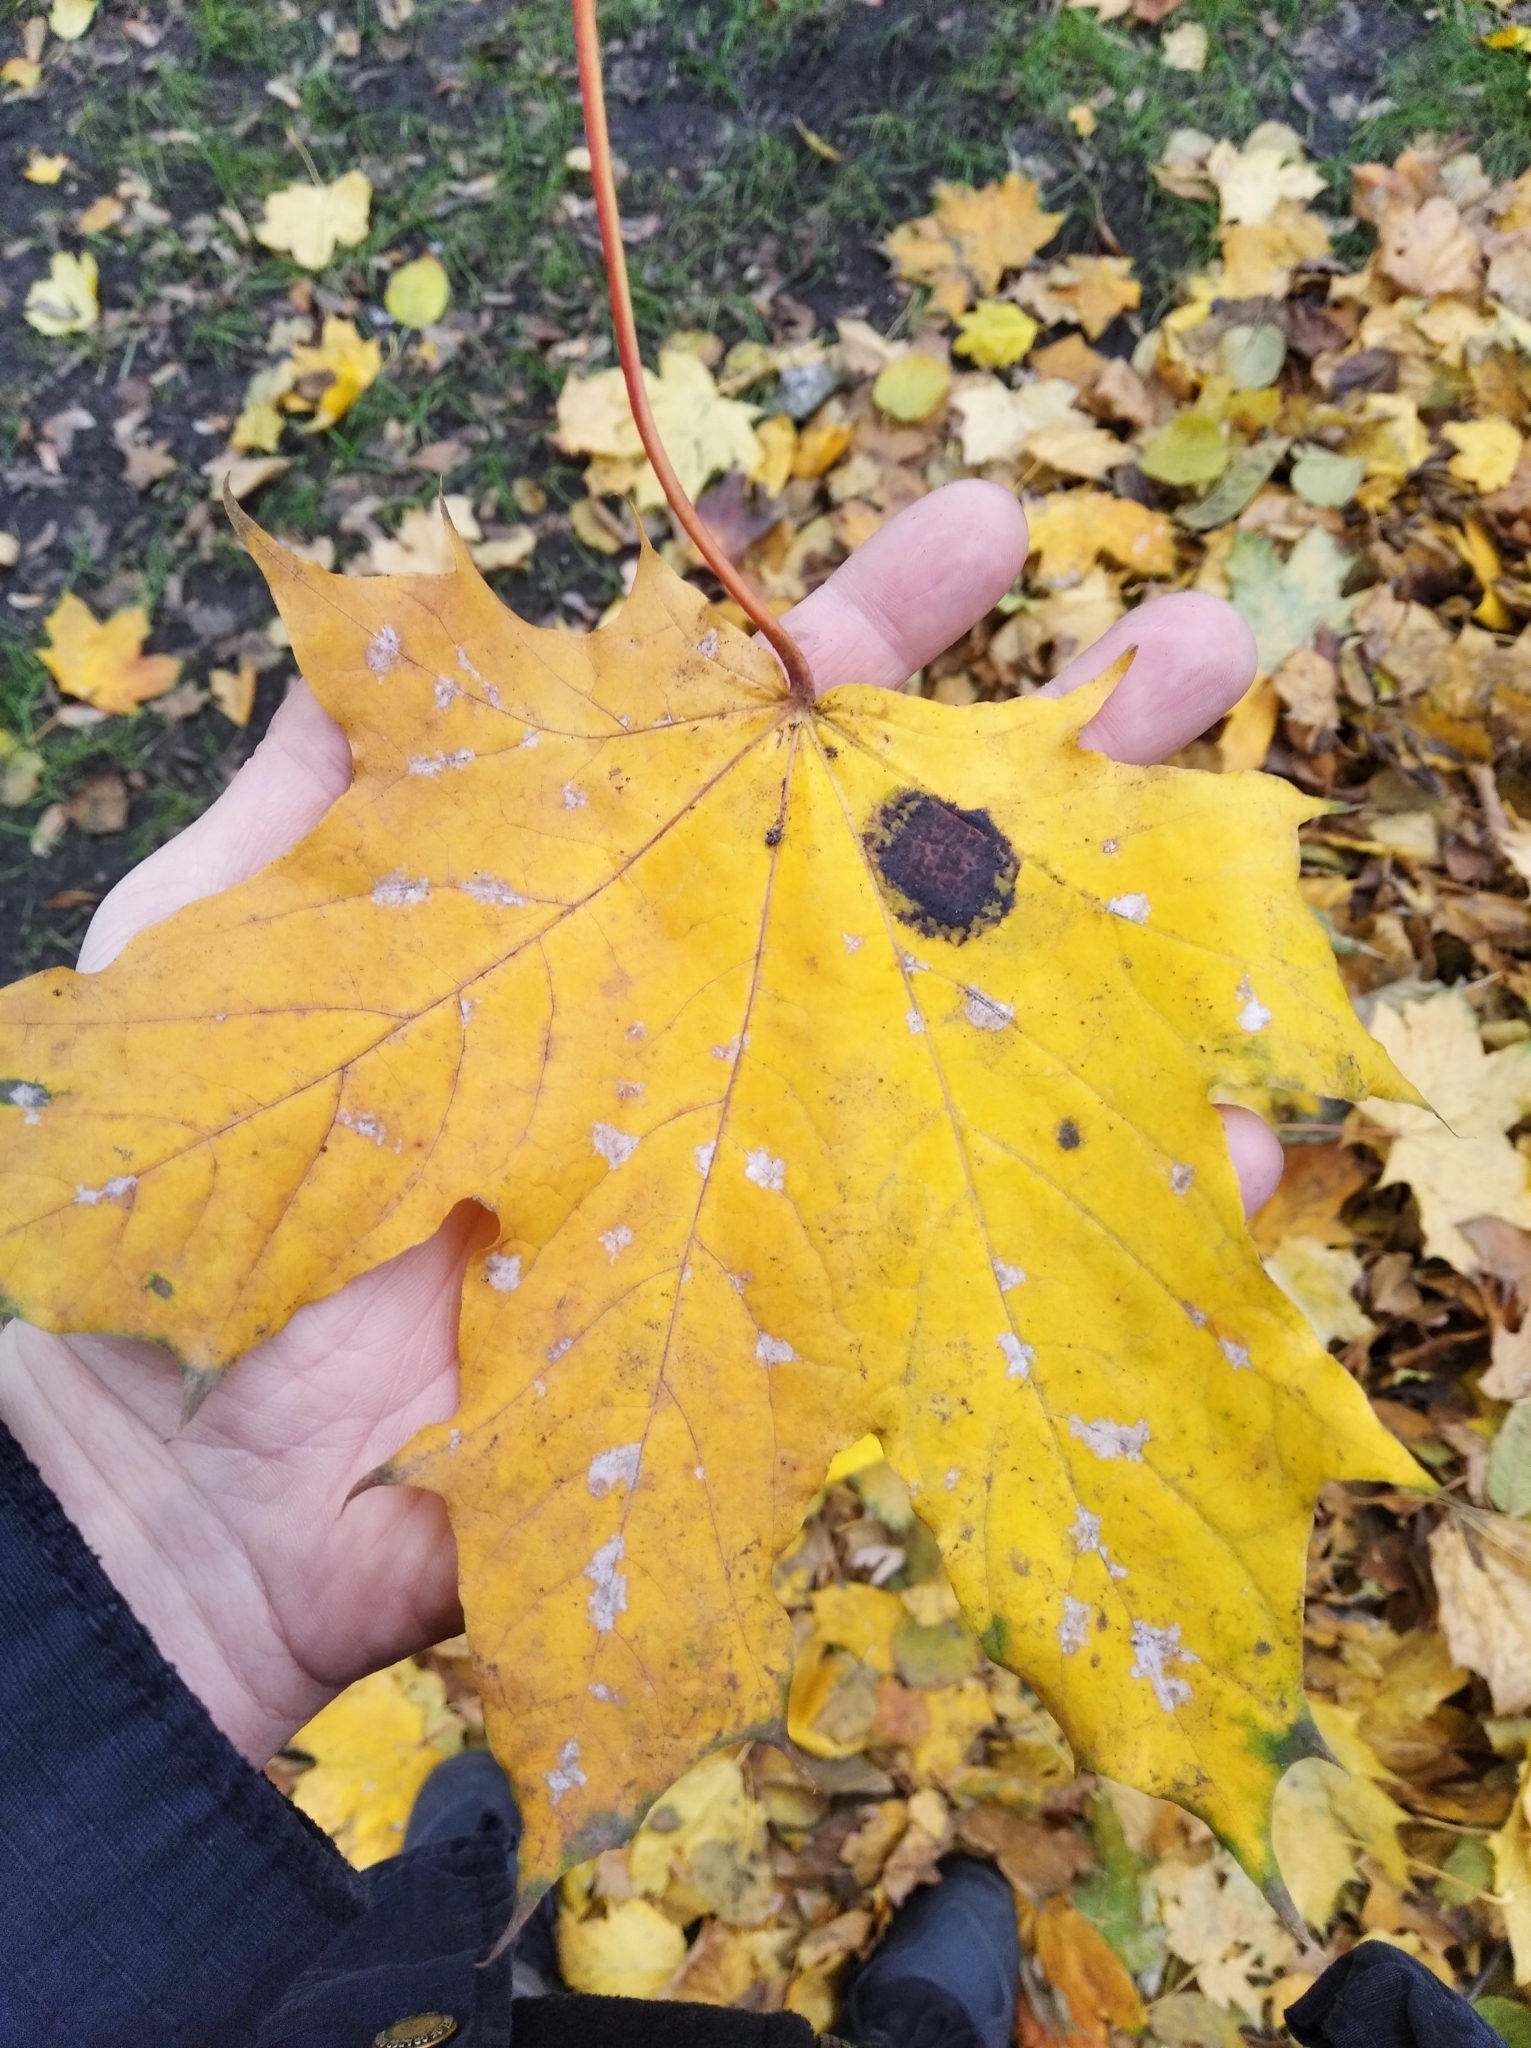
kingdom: Fungi
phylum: Ascomycota
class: Leotiomycetes
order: Rhytismatales
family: Rhytismataceae
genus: Rhytisma
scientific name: Rhytisma acerinum
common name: European tar spot
